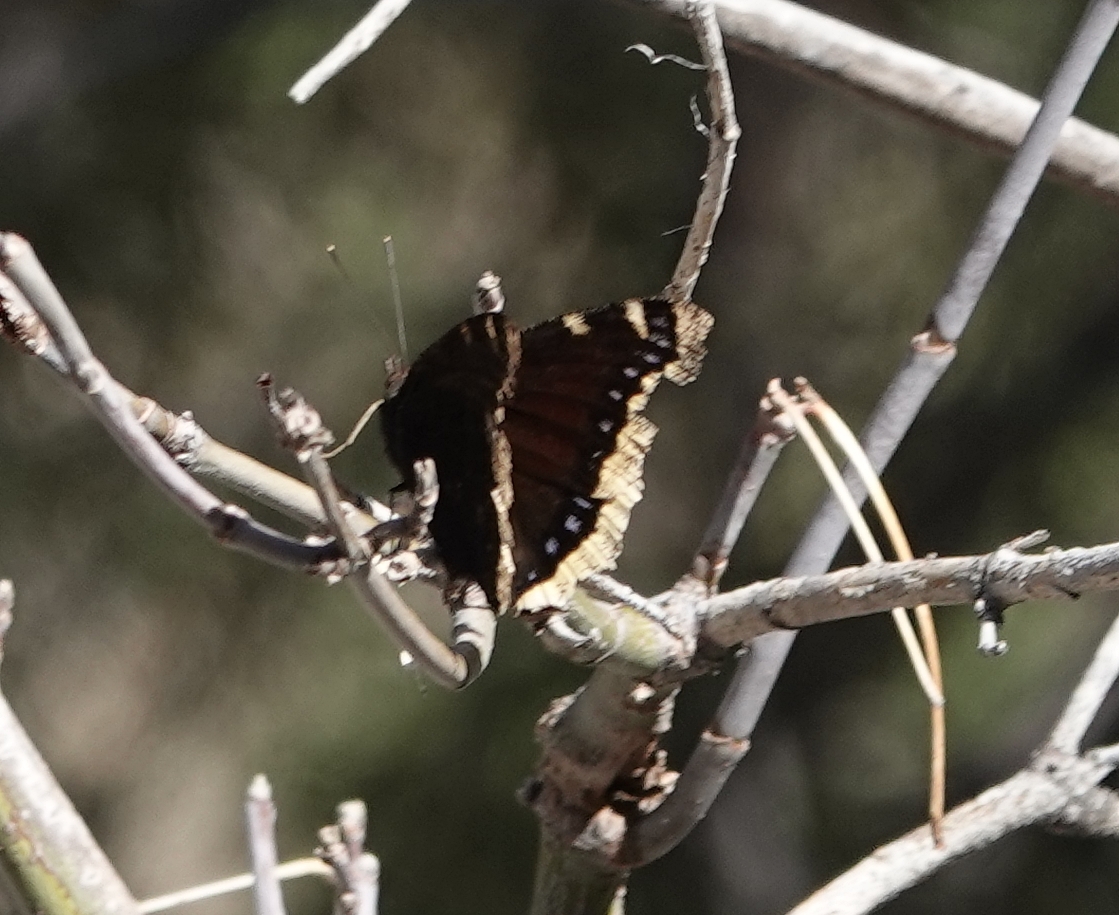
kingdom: Animalia
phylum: Arthropoda
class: Insecta
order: Lepidoptera
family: Nymphalidae
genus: Nymphalis
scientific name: Nymphalis antiopa
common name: Camberwell beauty
